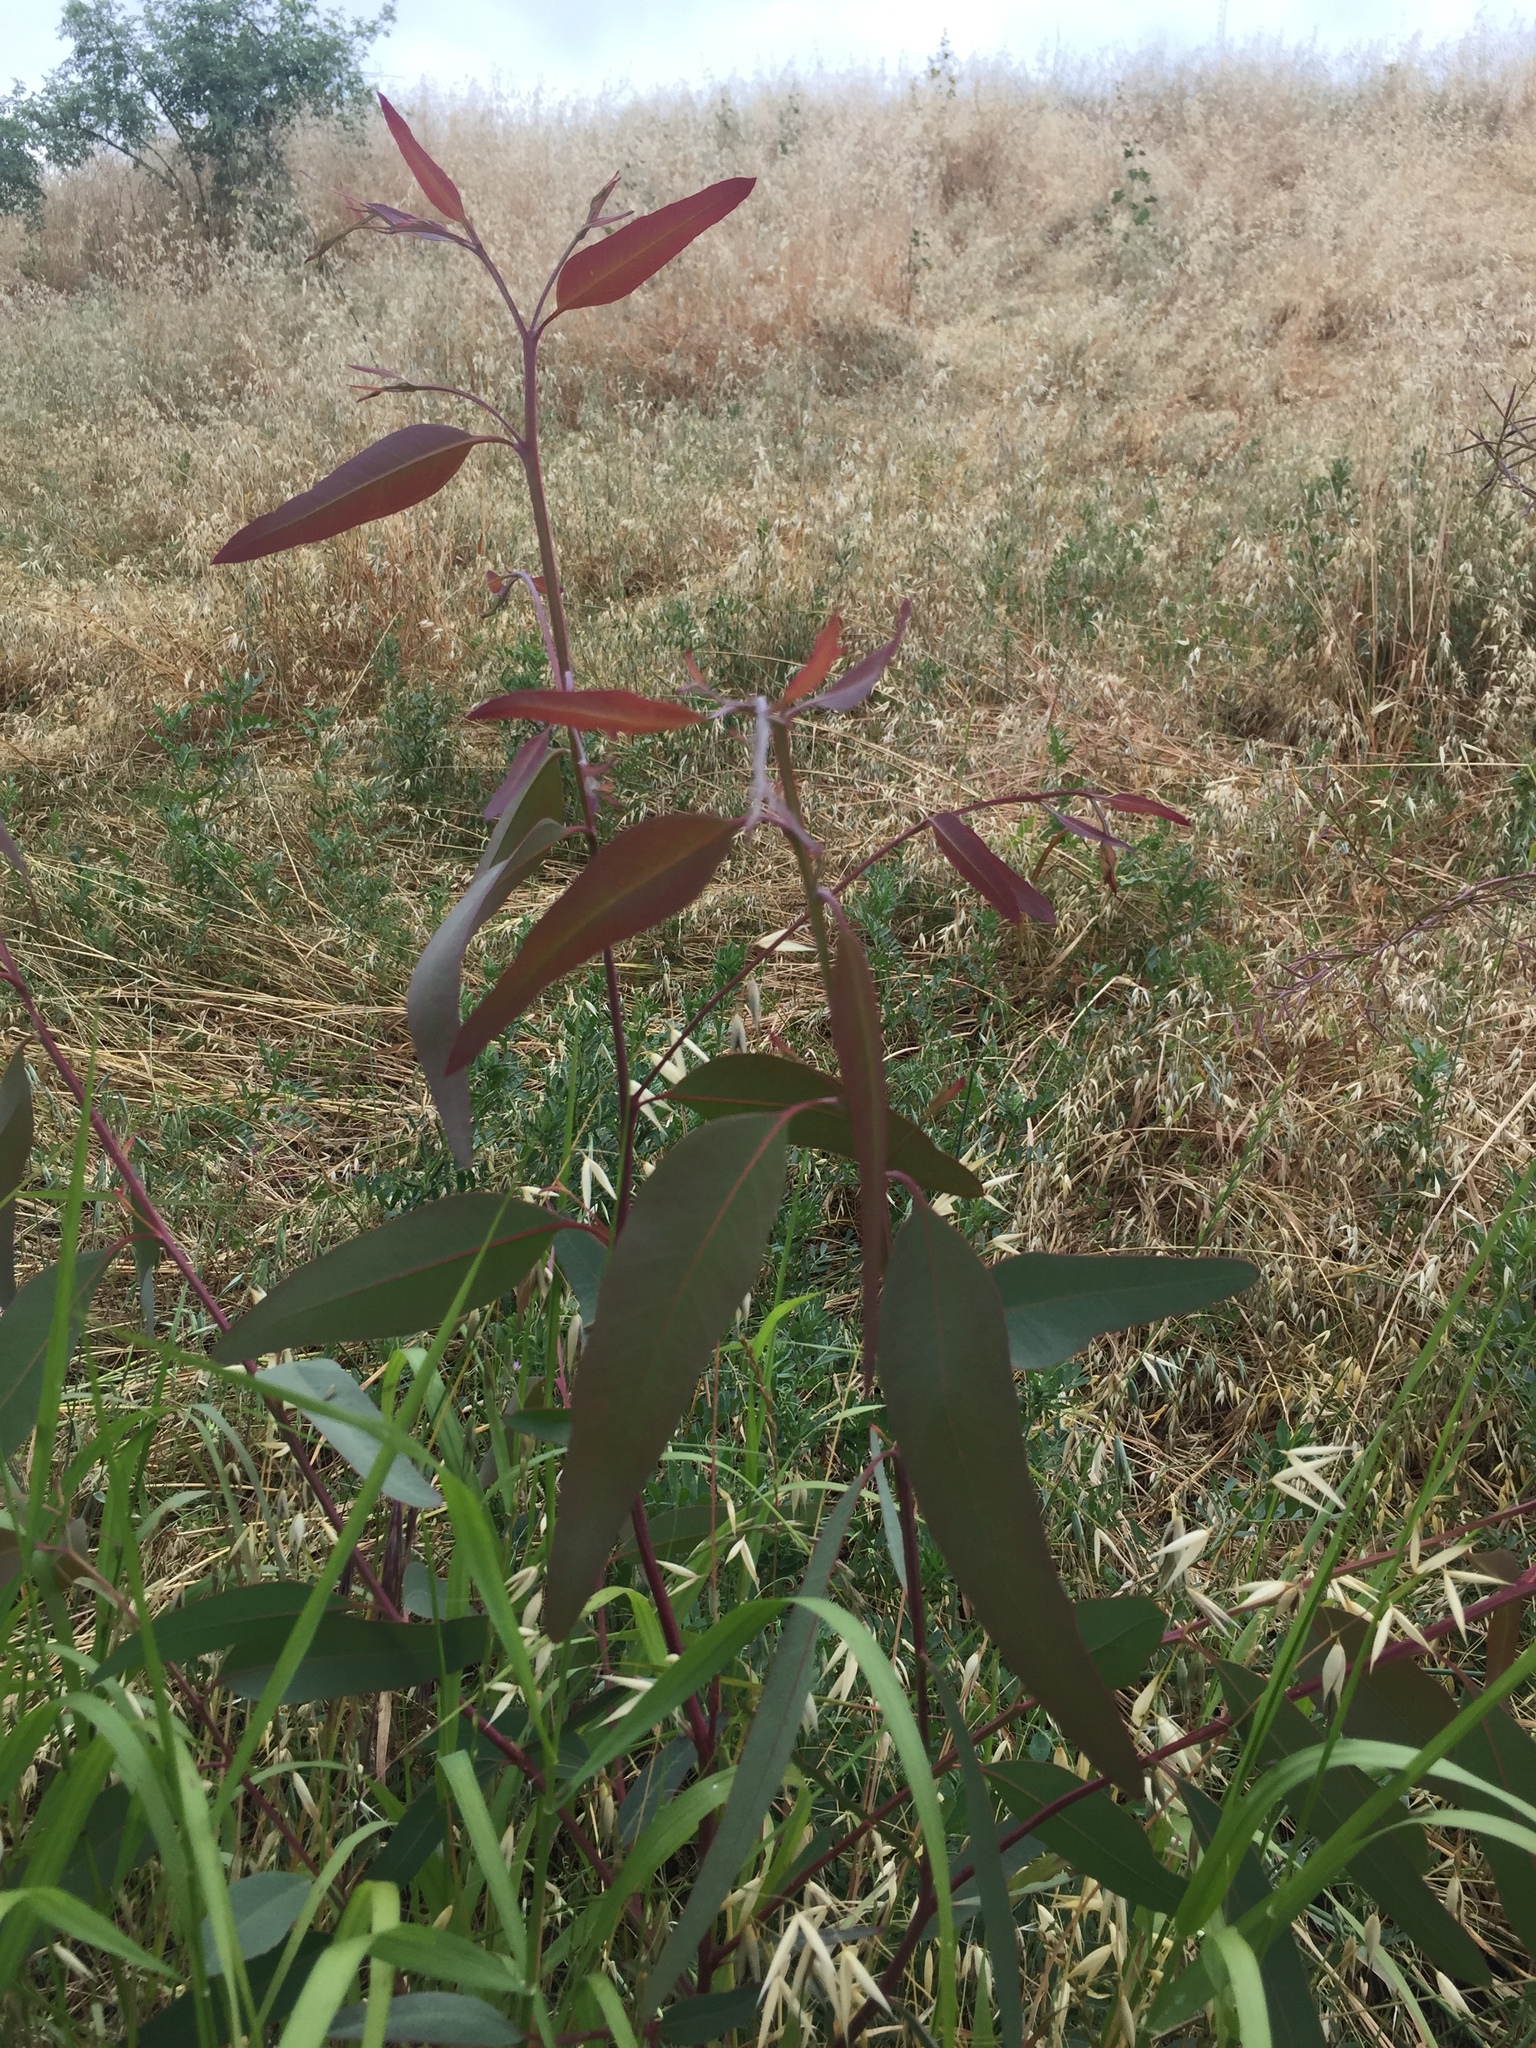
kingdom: Plantae
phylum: Tracheophyta
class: Magnoliopsida
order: Myrtales
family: Myrtaceae
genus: Eucalyptus
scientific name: Eucalyptus globulus
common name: Southern blue-gum
